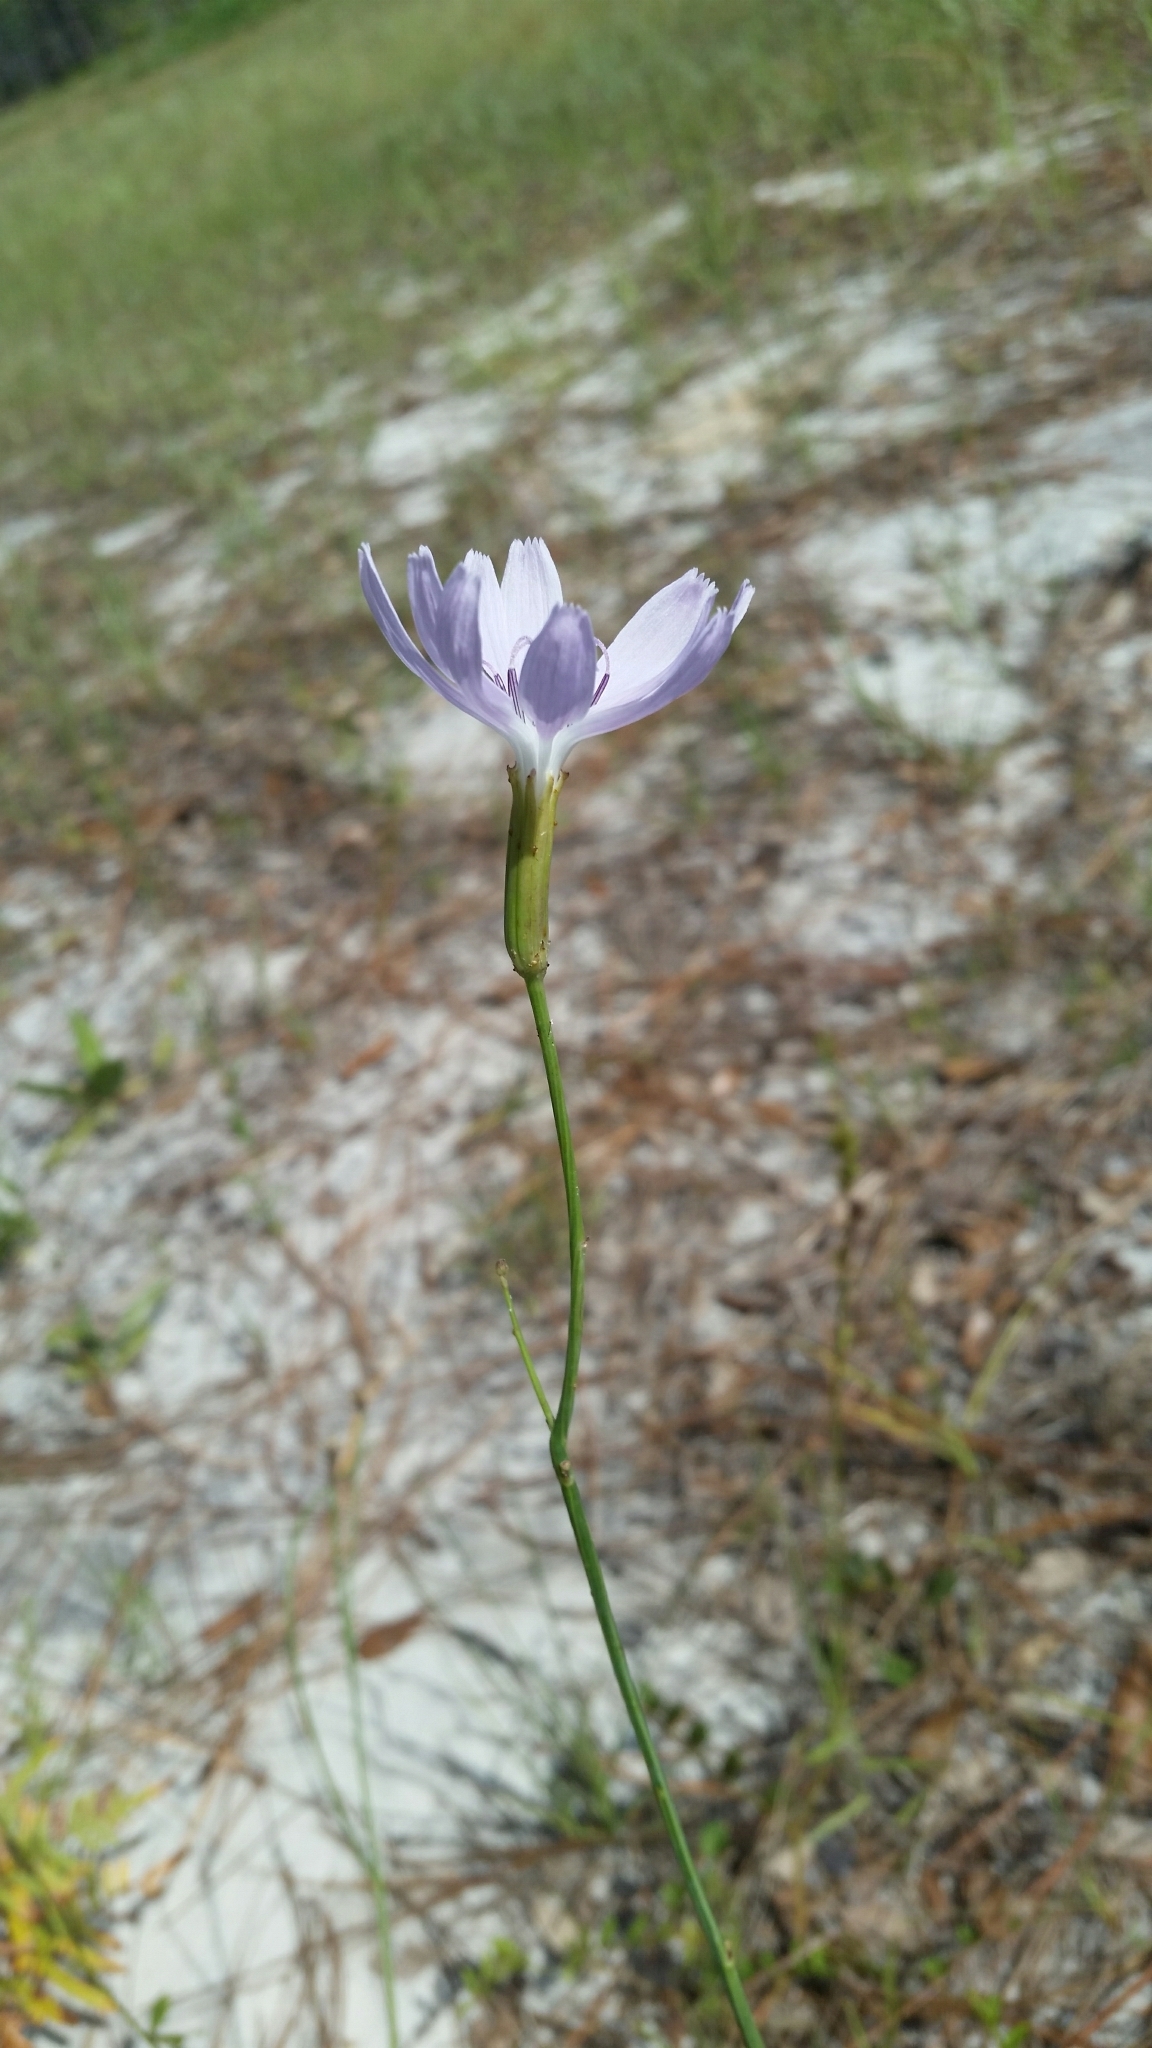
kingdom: Plantae
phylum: Tracheophyta
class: Magnoliopsida
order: Asterales
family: Asteraceae
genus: Lygodesmia
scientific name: Lygodesmia aphylla
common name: Rose-rush
